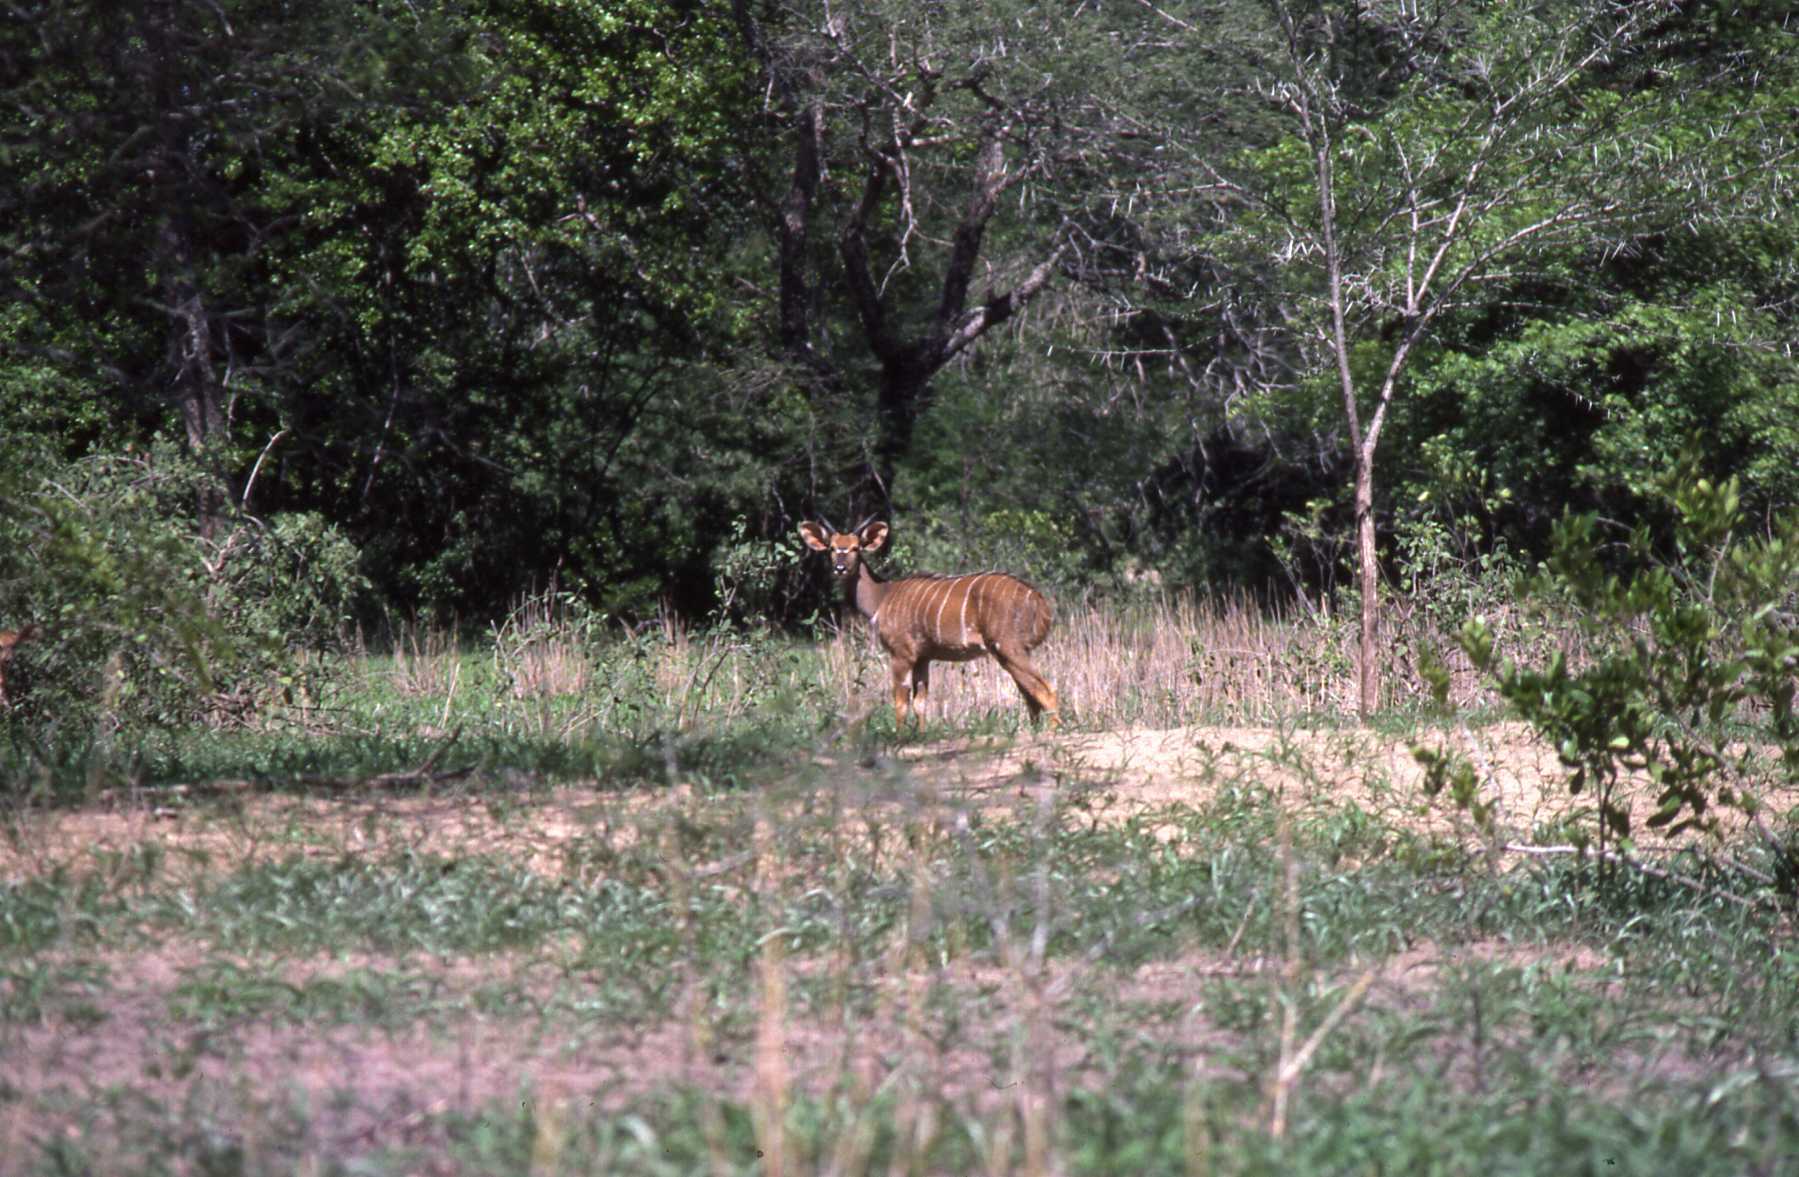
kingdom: Animalia
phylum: Chordata
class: Mammalia
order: Artiodactyla
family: Bovidae
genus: Tragelaphus
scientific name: Tragelaphus angasii
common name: Nyala
